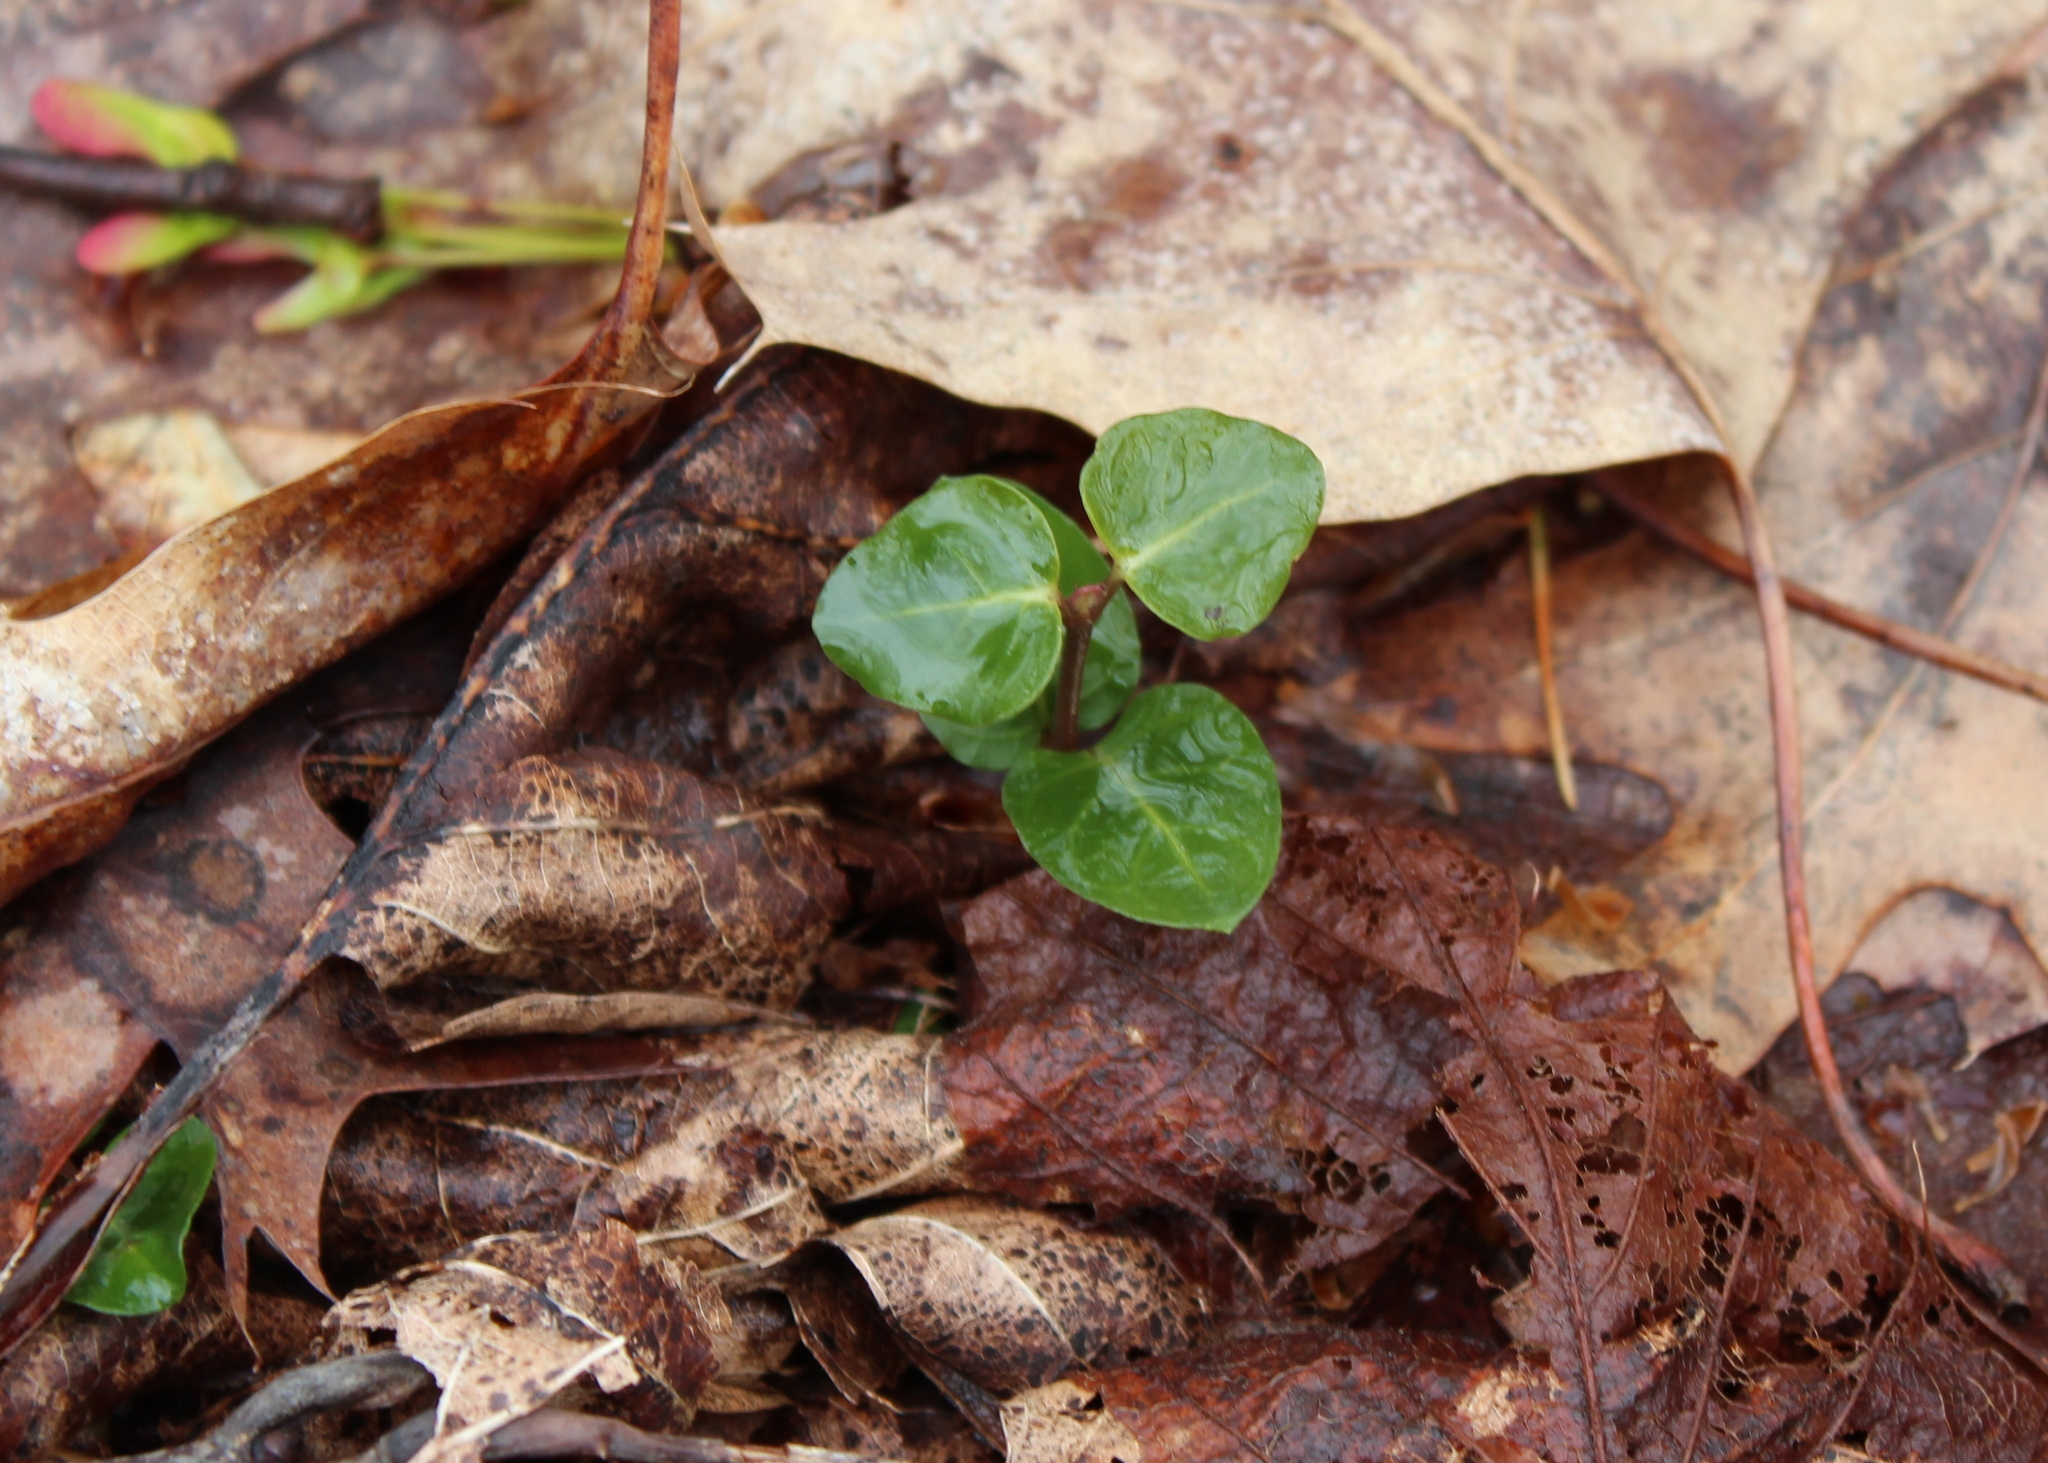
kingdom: Plantae
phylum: Tracheophyta
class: Magnoliopsida
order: Gentianales
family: Rubiaceae
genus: Mitchella
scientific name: Mitchella repens
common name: Partridge-berry
